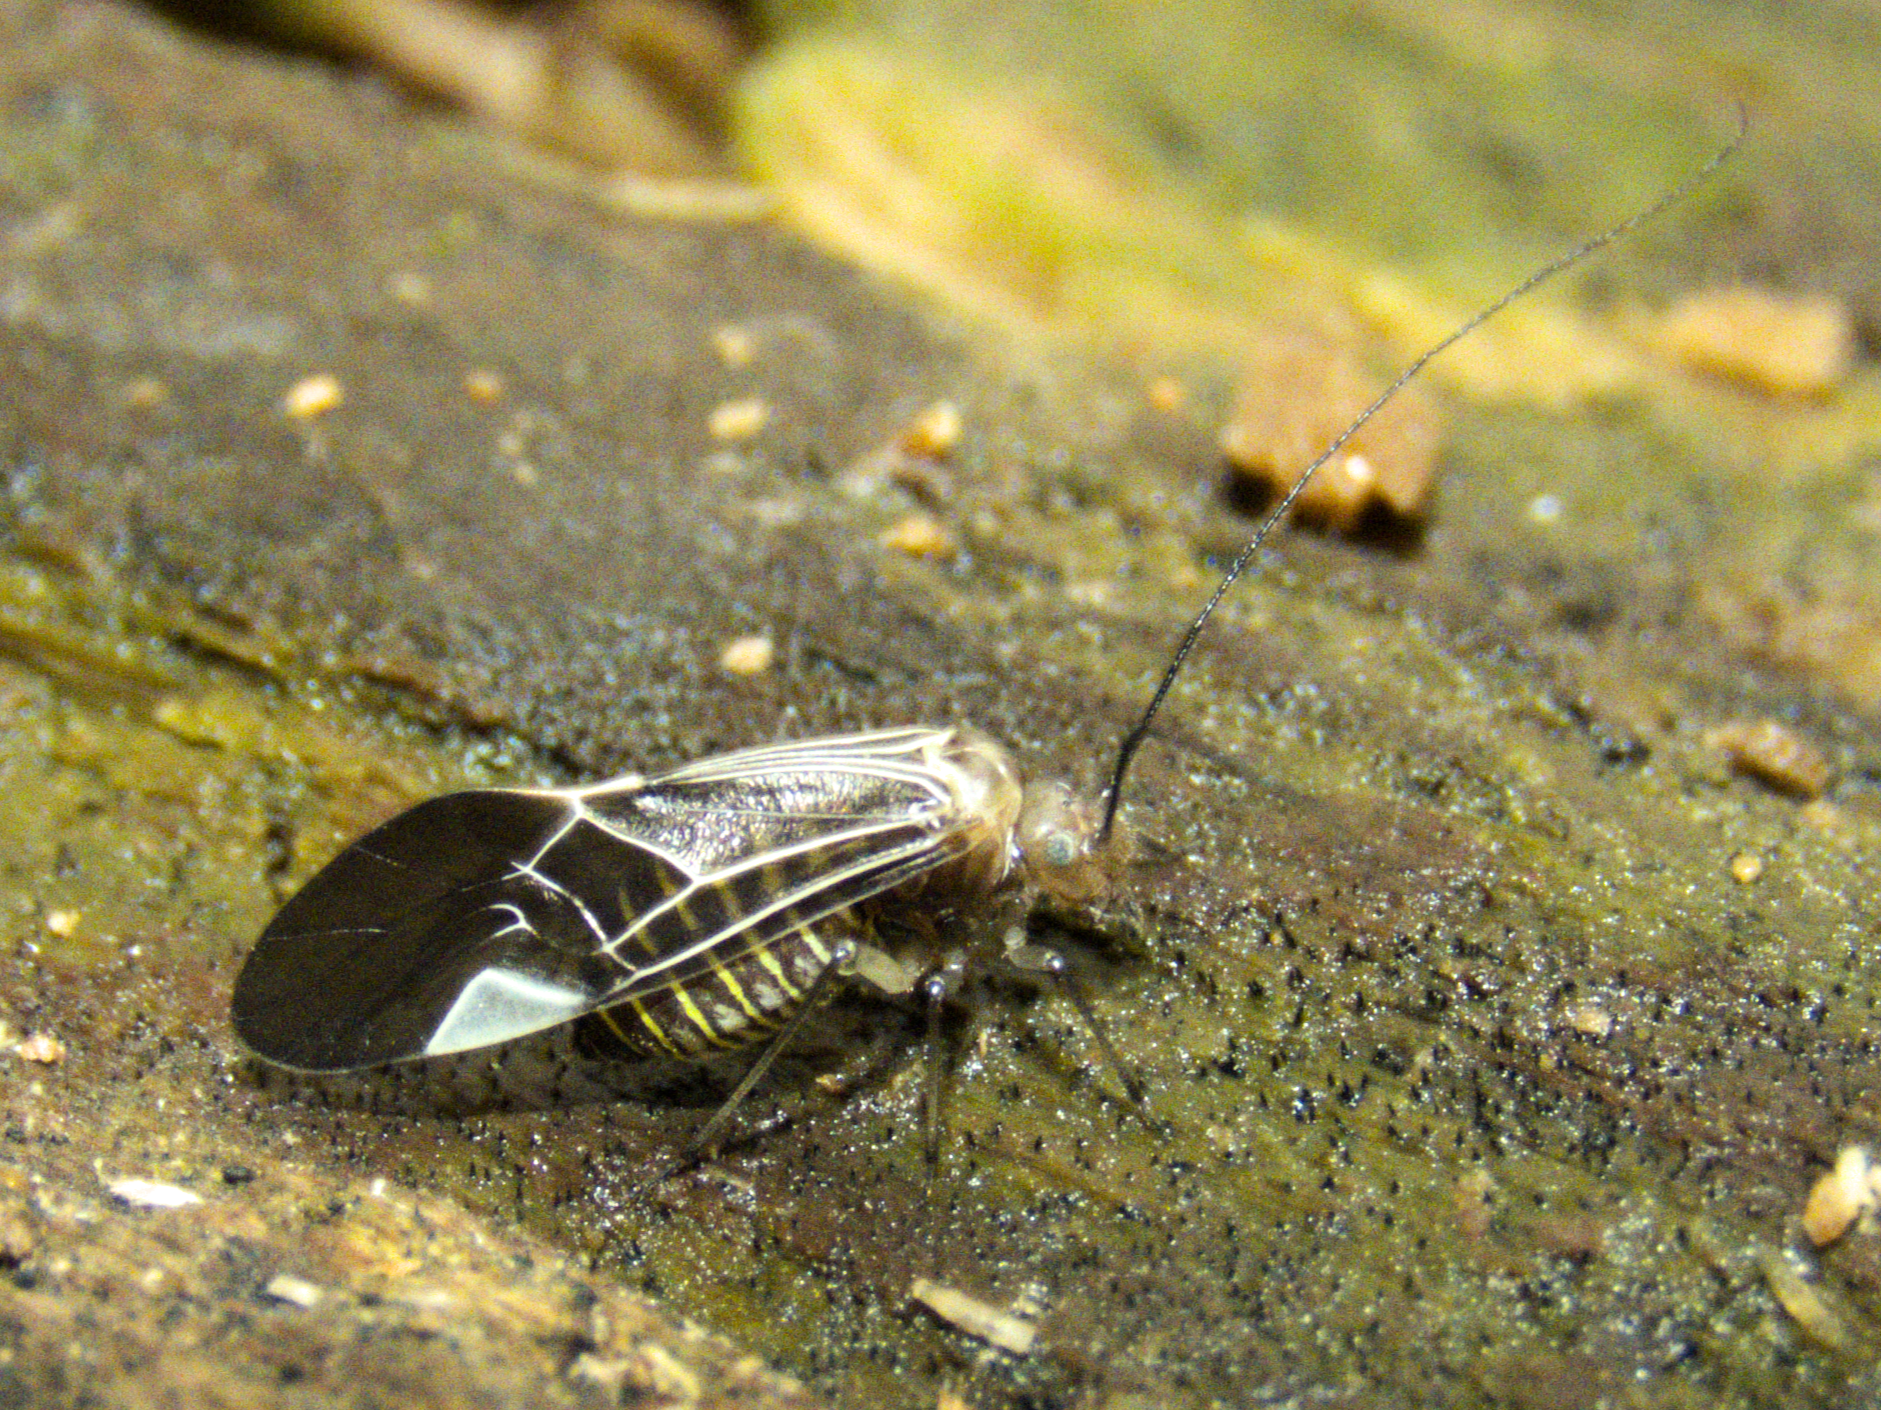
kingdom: Animalia
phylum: Arthropoda
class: Insecta
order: Psocodea
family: Psocidae
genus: Cerastipsocus
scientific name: Cerastipsocus venosus
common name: Tree cattle
